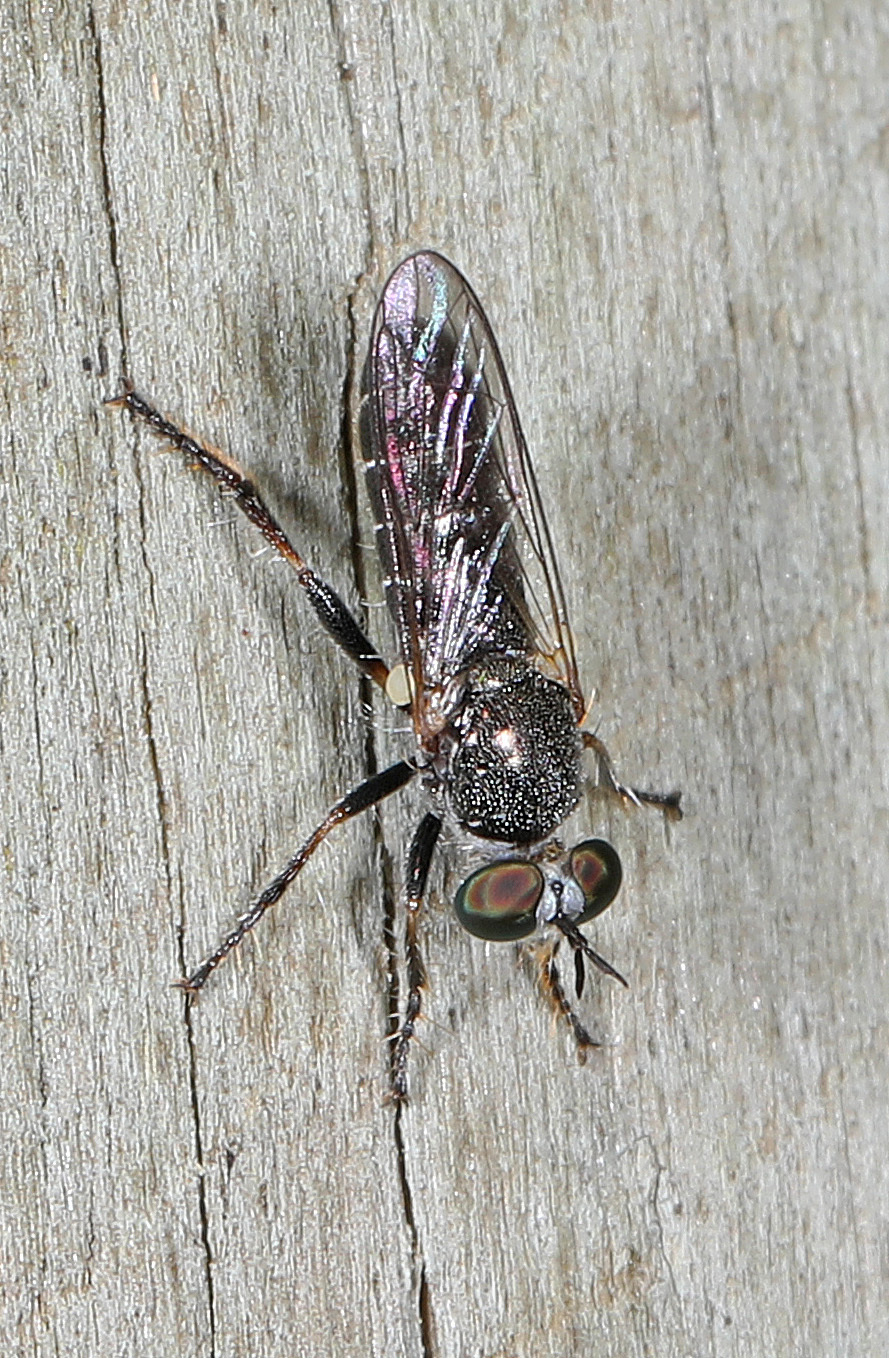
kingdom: Animalia
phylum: Arthropoda
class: Insecta
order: Diptera
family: Asilidae
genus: Atomosia
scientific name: Atomosia puella
